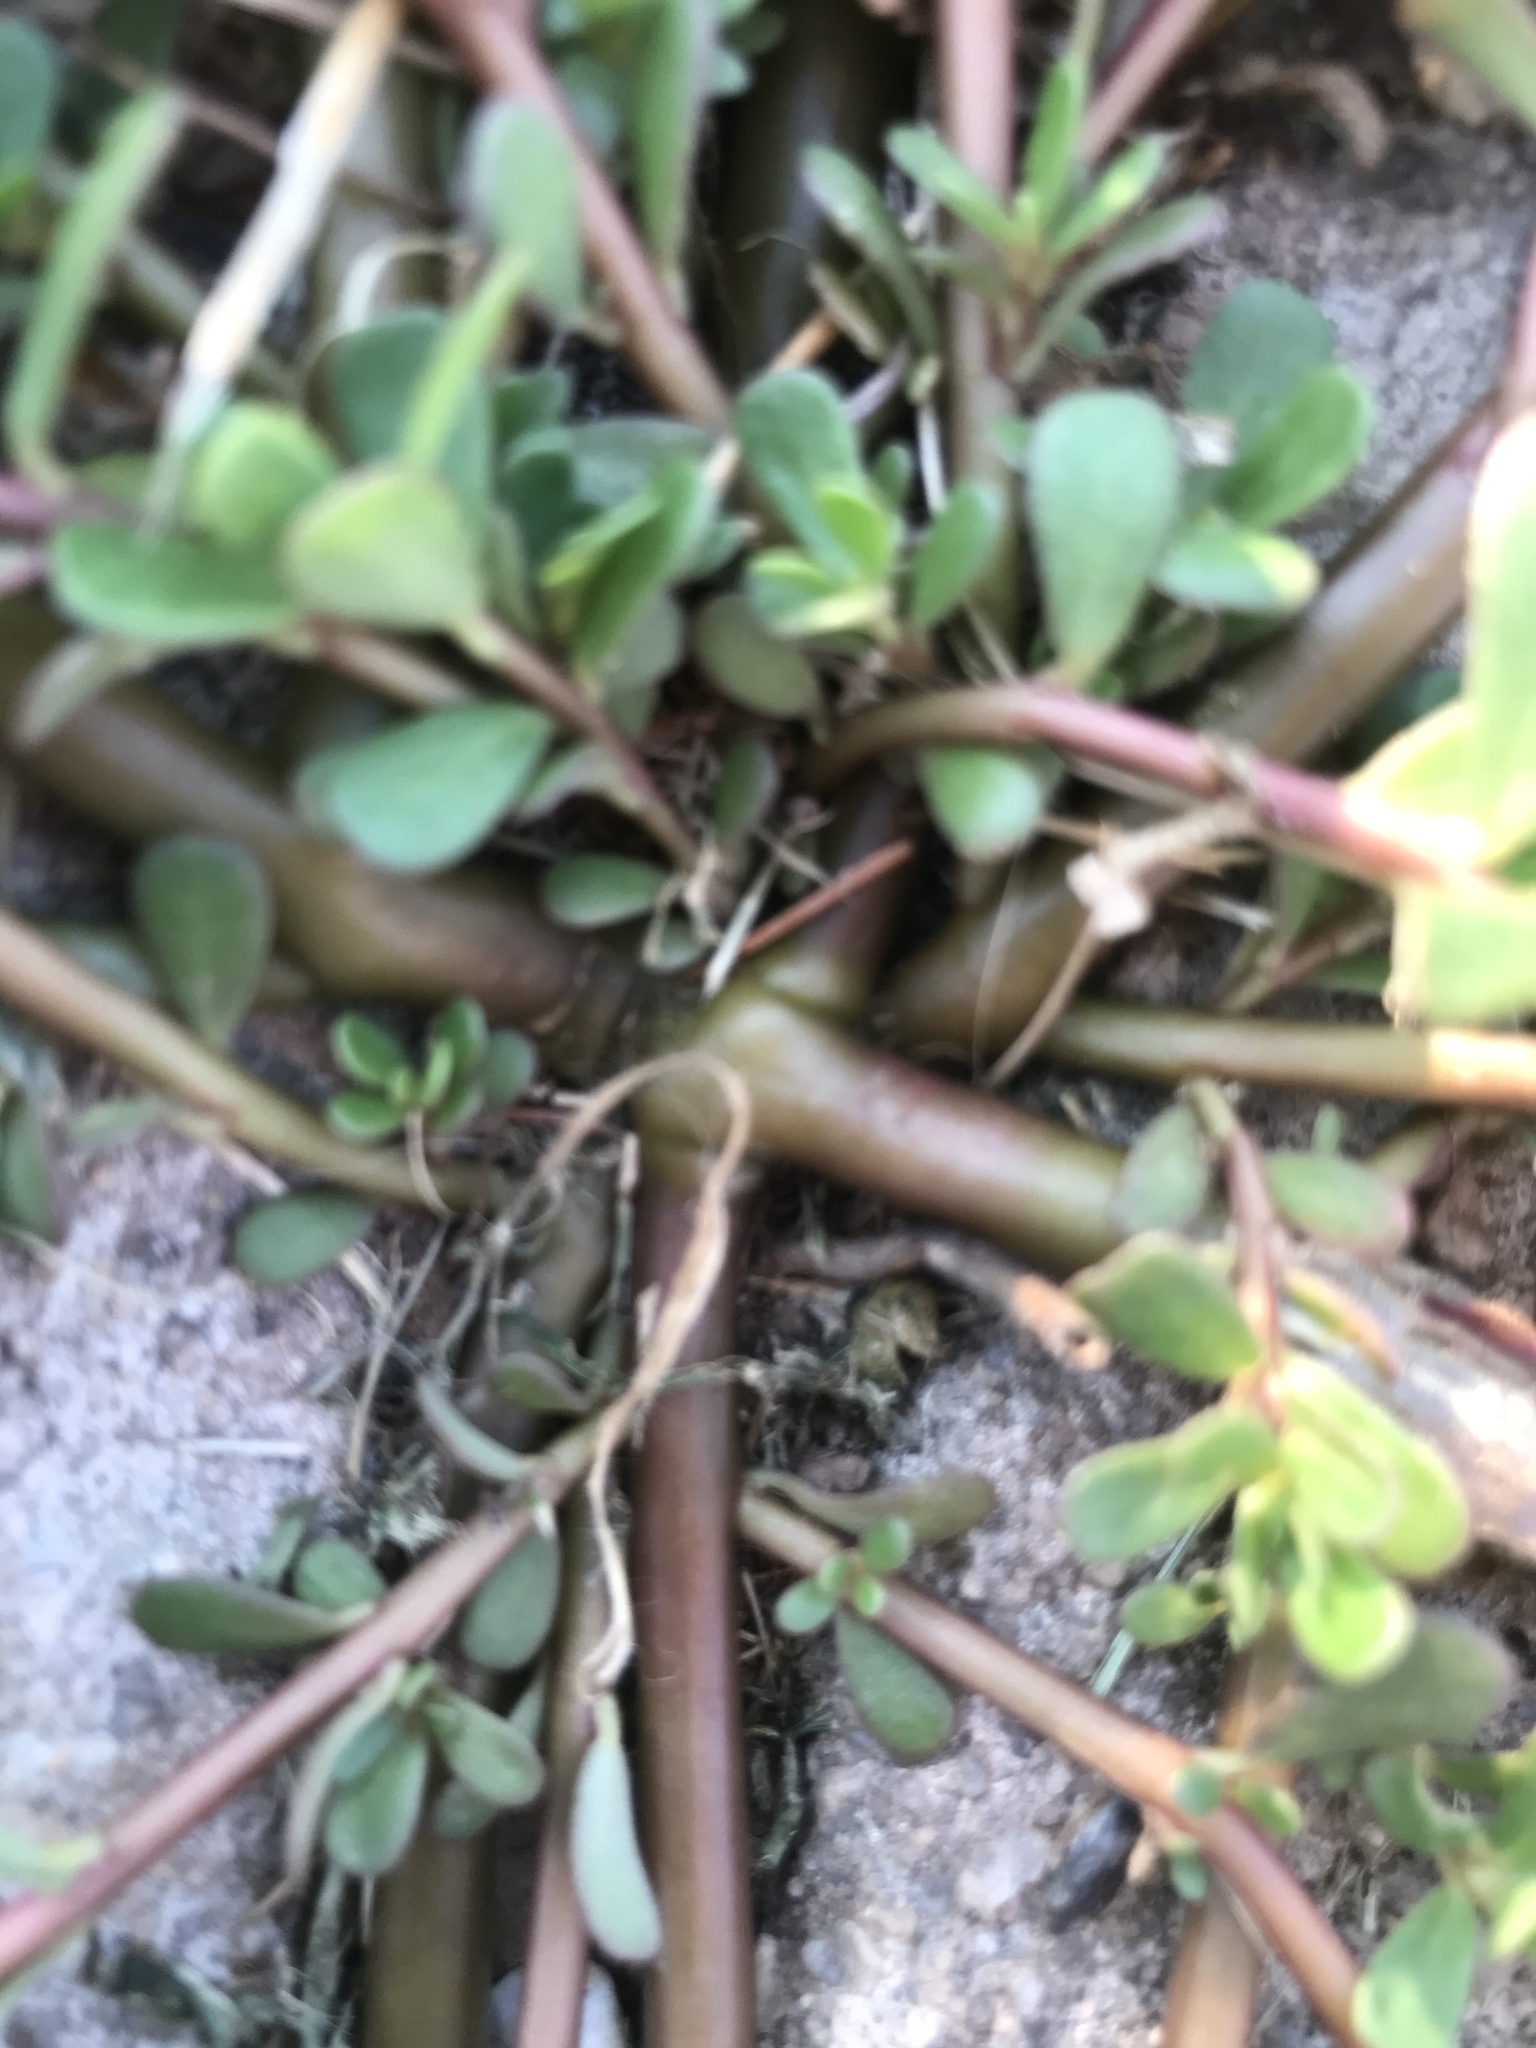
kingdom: Plantae
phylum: Tracheophyta
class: Magnoliopsida
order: Caryophyllales
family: Portulacaceae
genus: Portulaca
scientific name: Portulaca oleracea
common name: Common purslane
